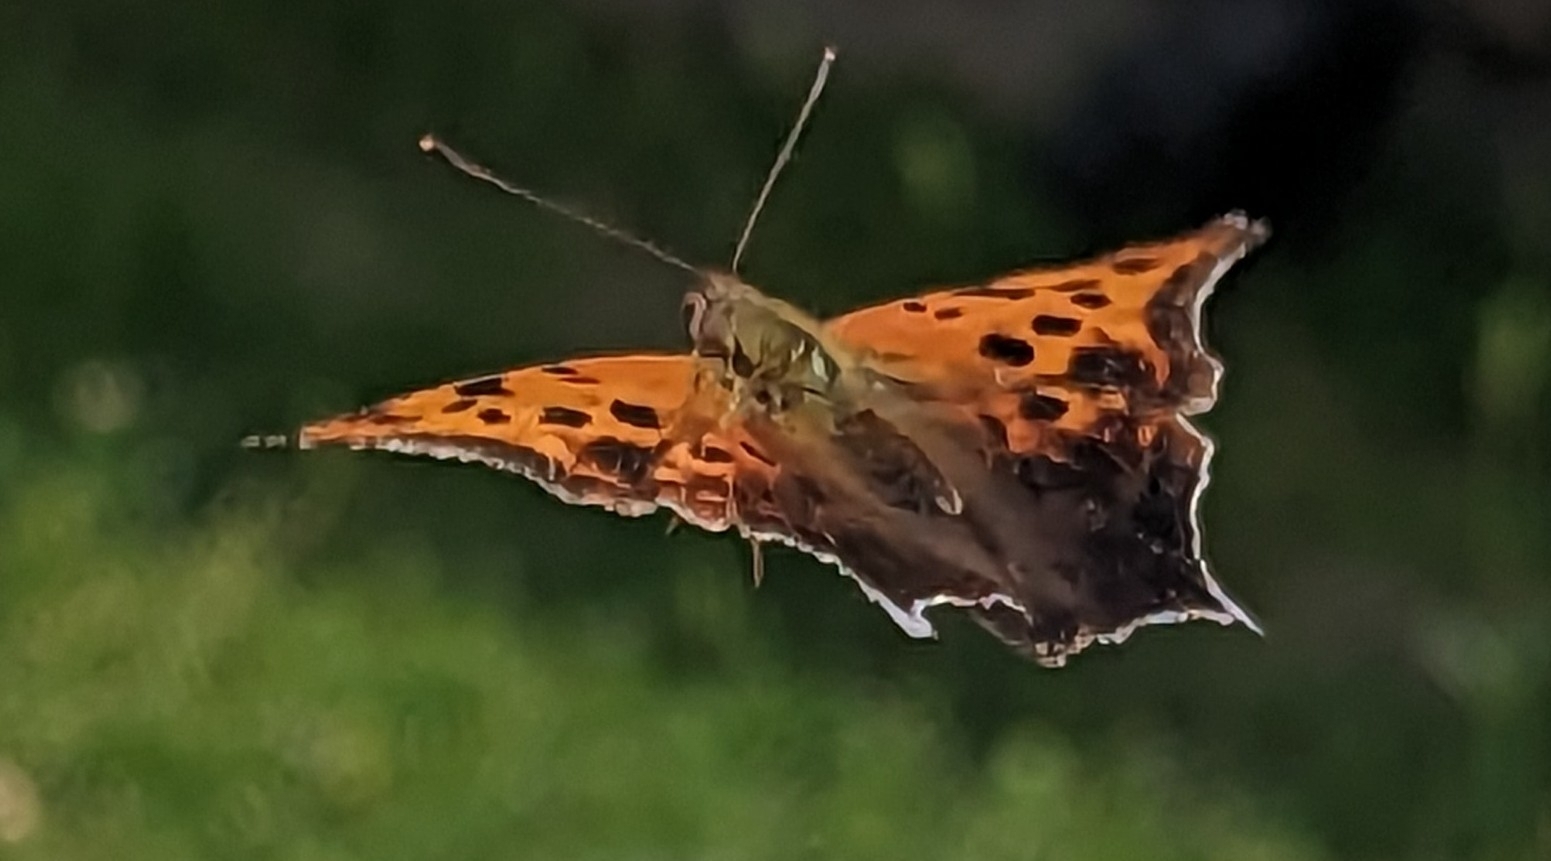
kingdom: Animalia
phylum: Arthropoda
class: Insecta
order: Lepidoptera
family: Nymphalidae
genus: Polygonia
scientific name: Polygonia interrogationis
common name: Question mark
